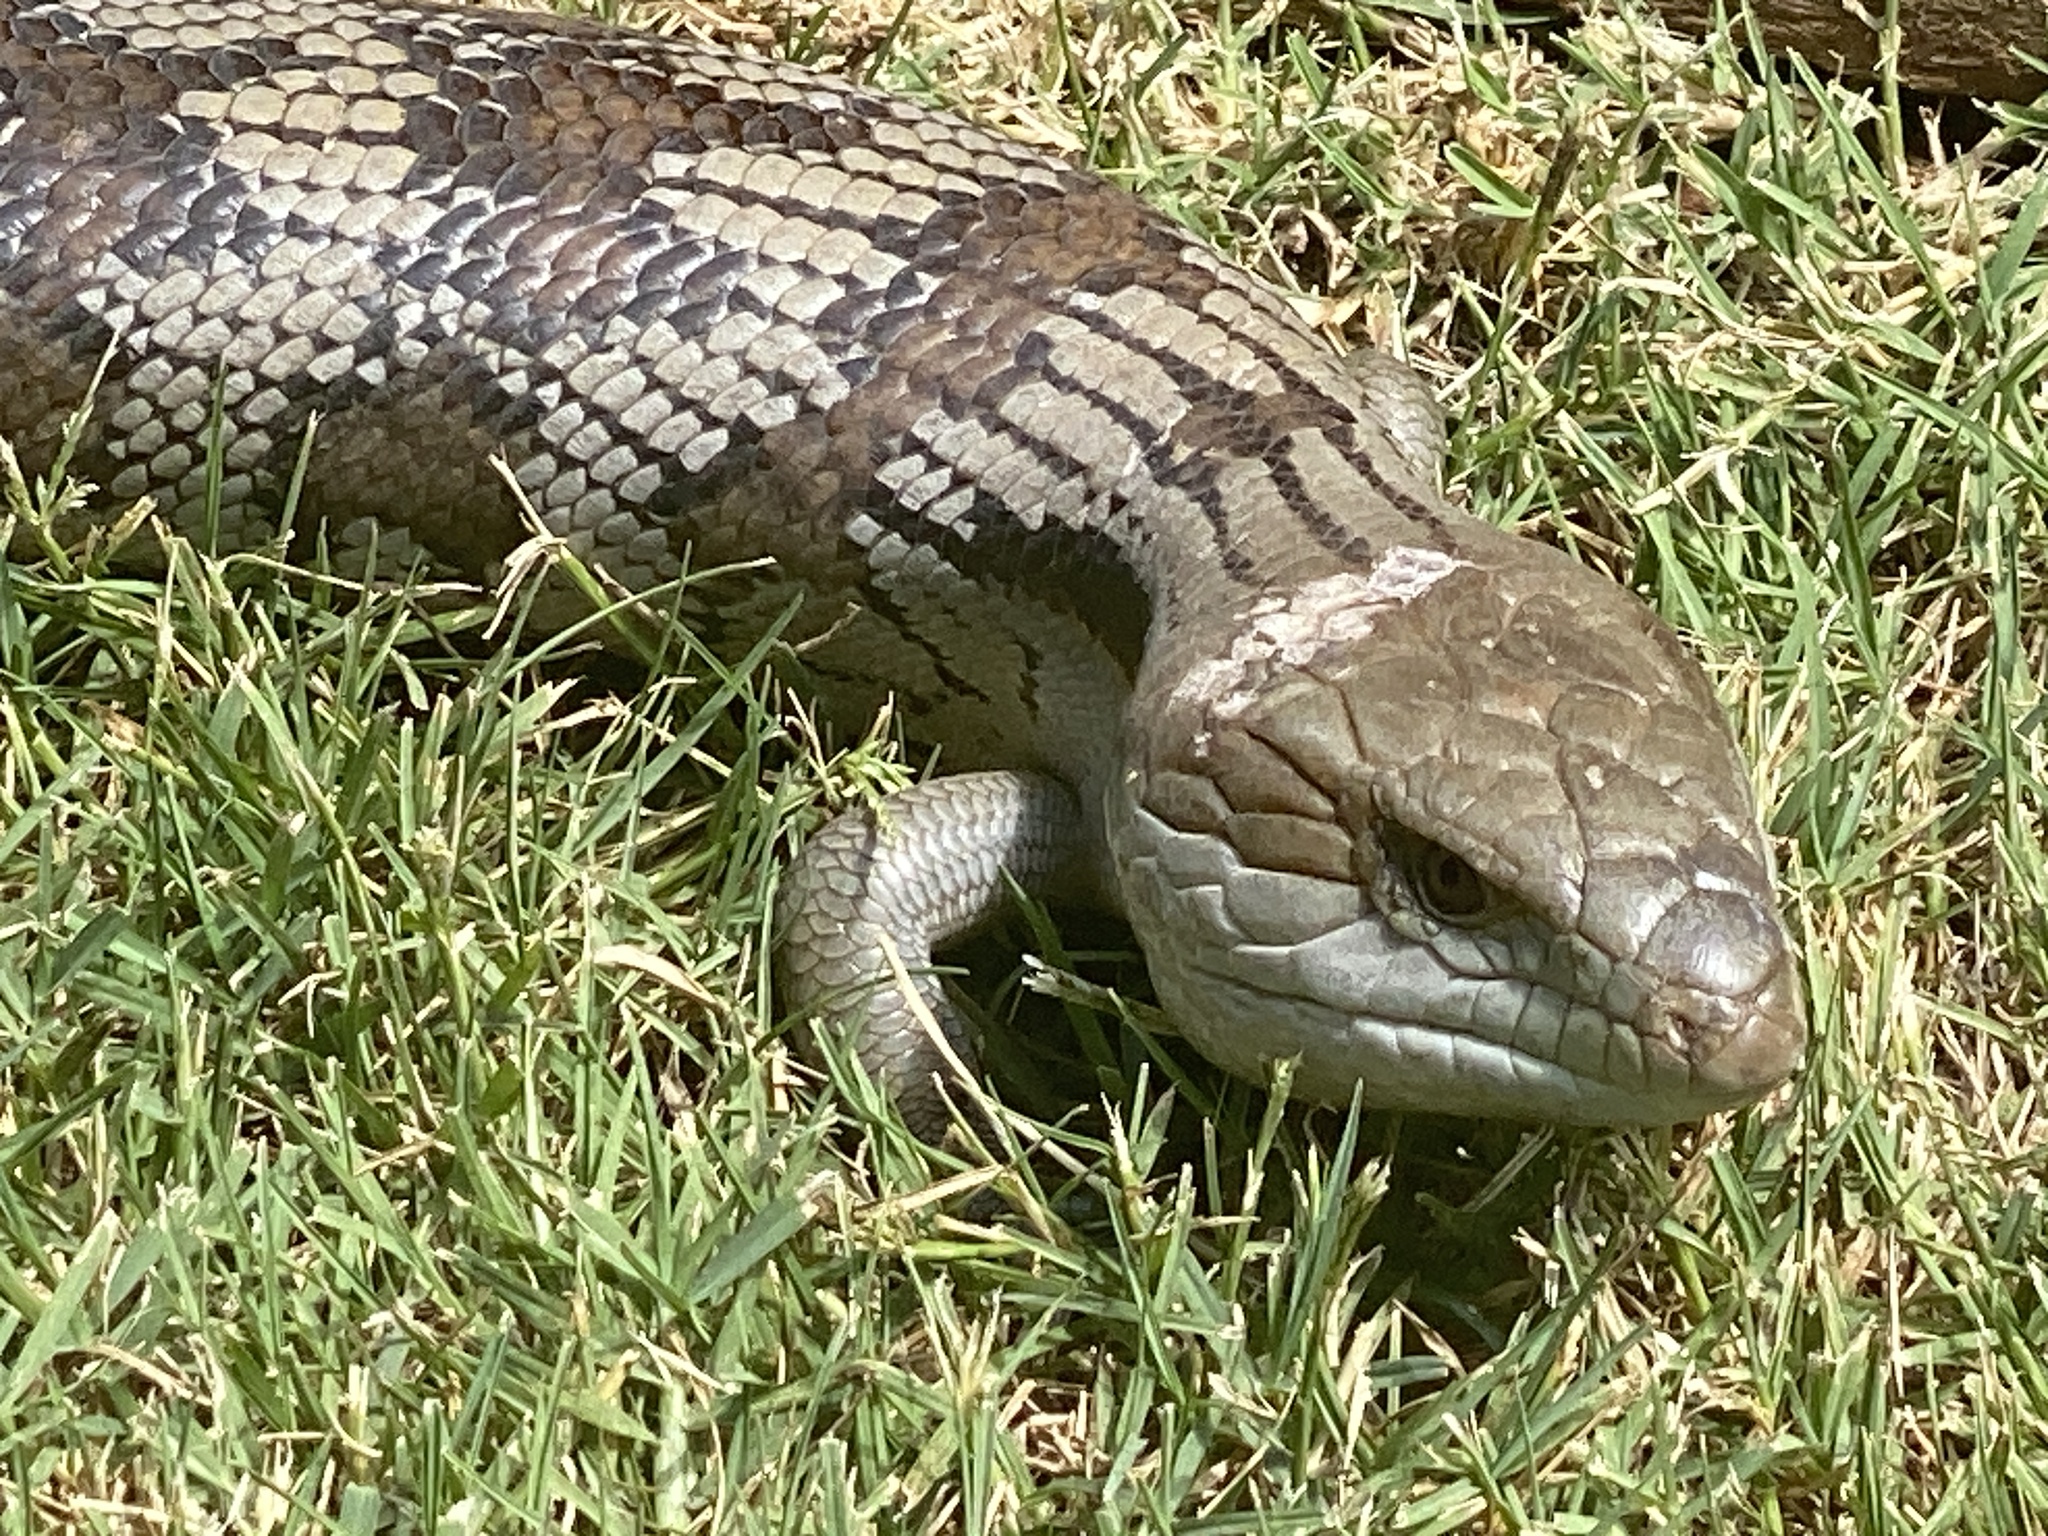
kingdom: Animalia
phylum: Chordata
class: Squamata
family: Scincidae
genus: Tiliqua
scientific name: Tiliqua scincoides
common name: Common bluetongue
